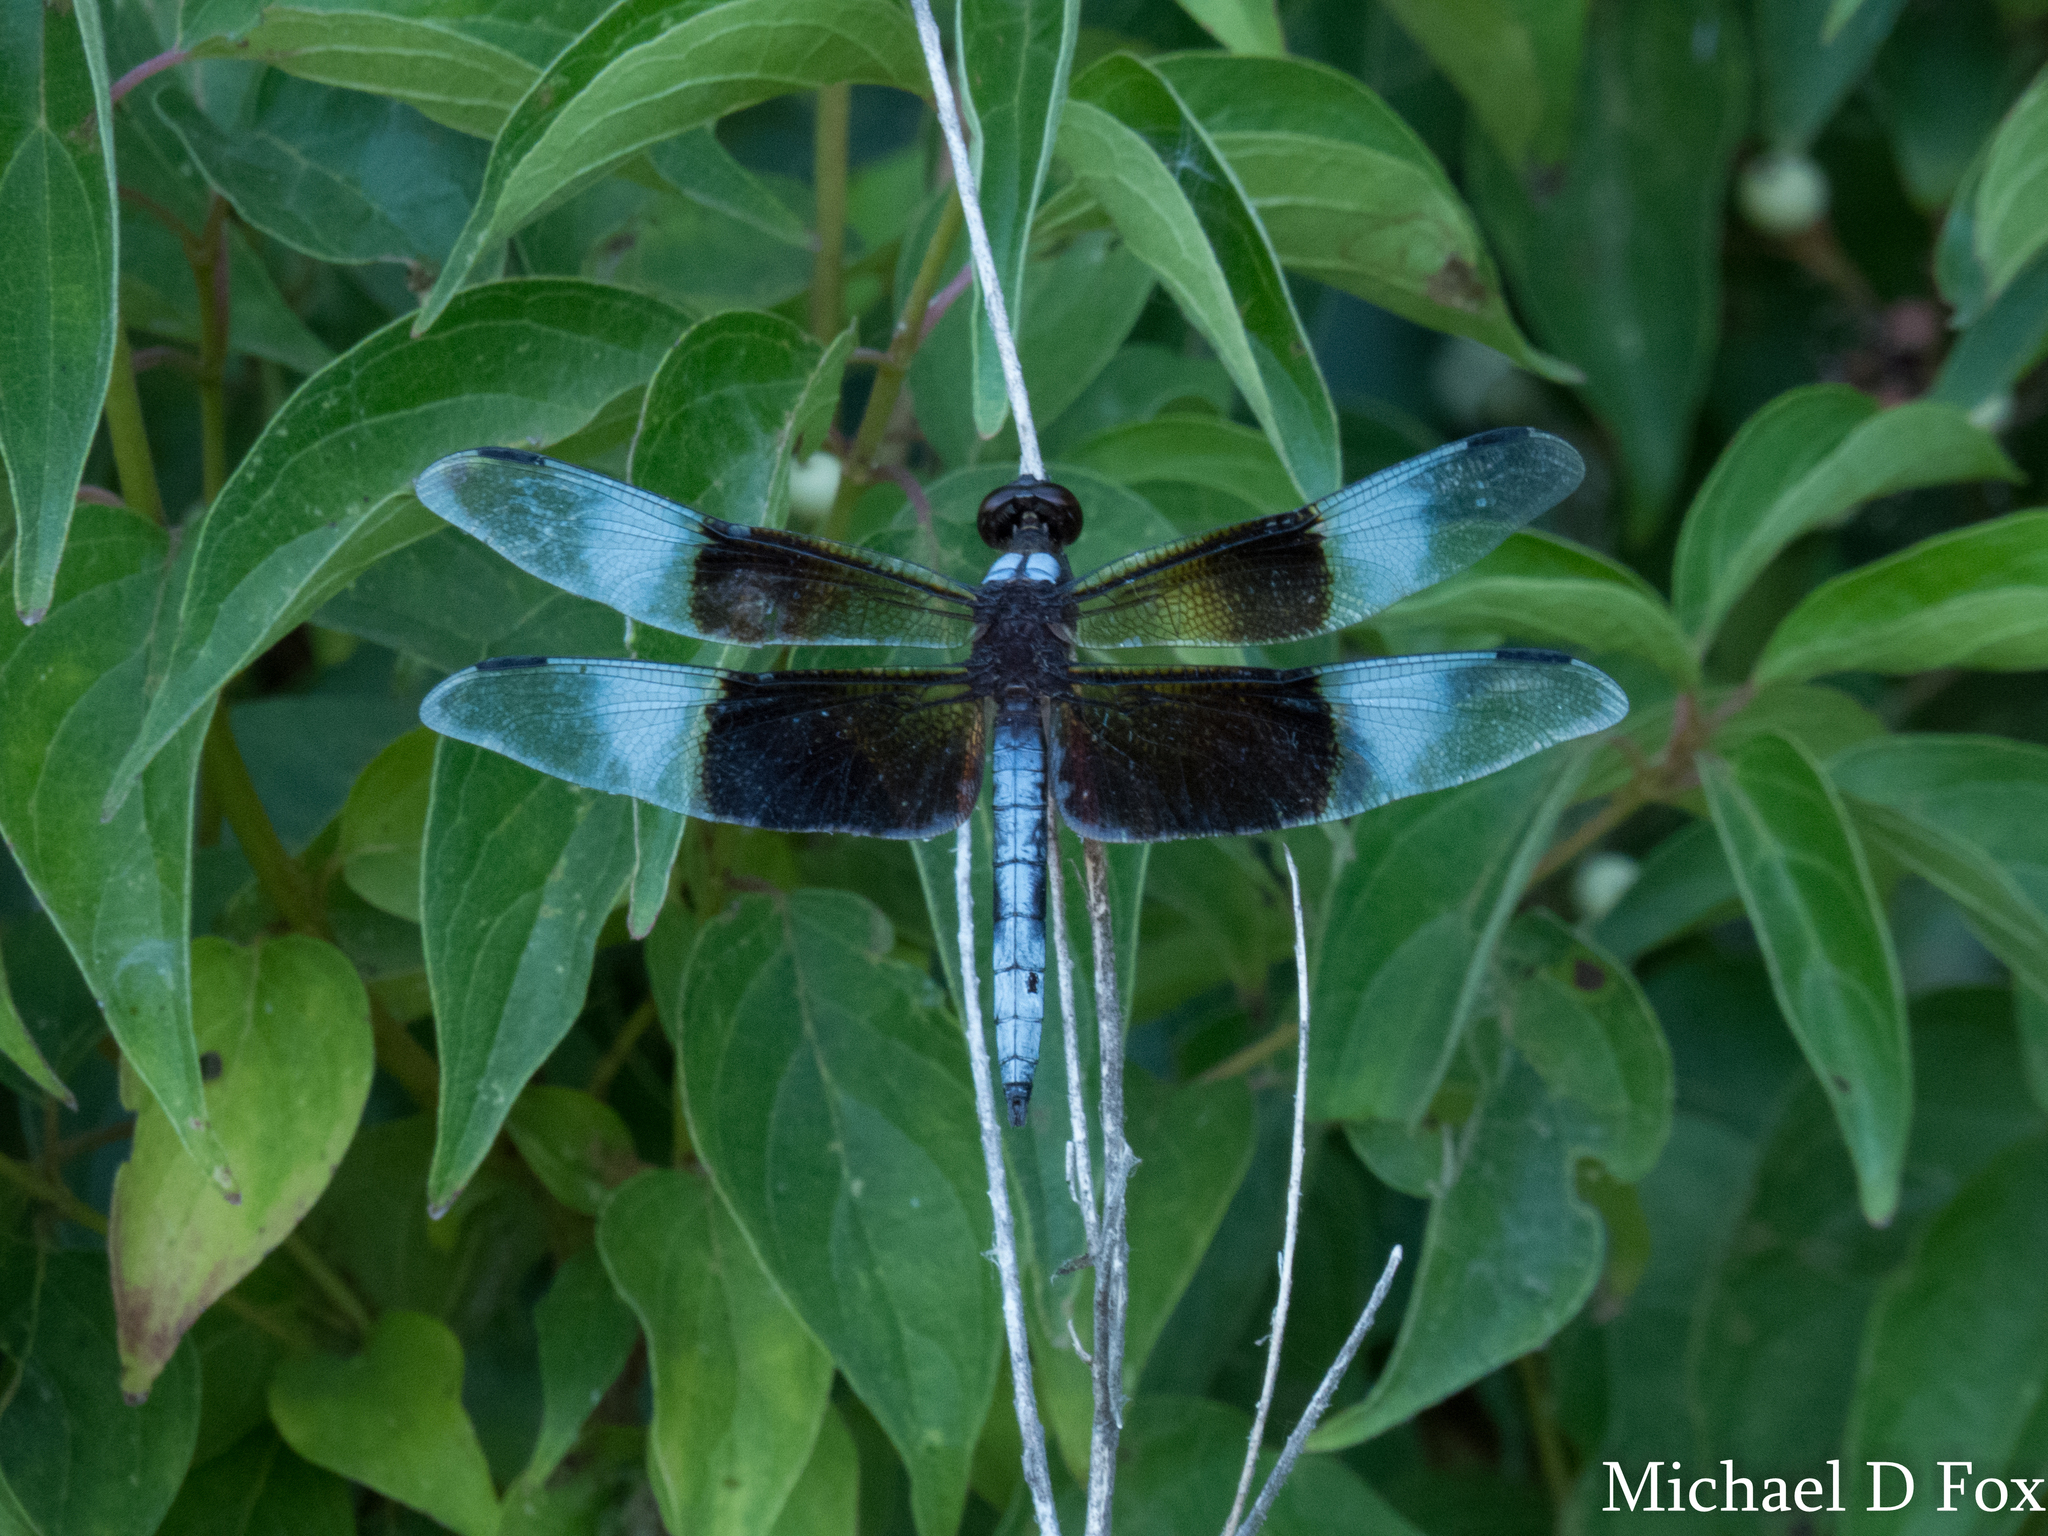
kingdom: Animalia
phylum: Arthropoda
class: Insecta
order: Odonata
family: Libellulidae
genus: Libellula
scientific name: Libellula luctuosa
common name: Widow skimmer
